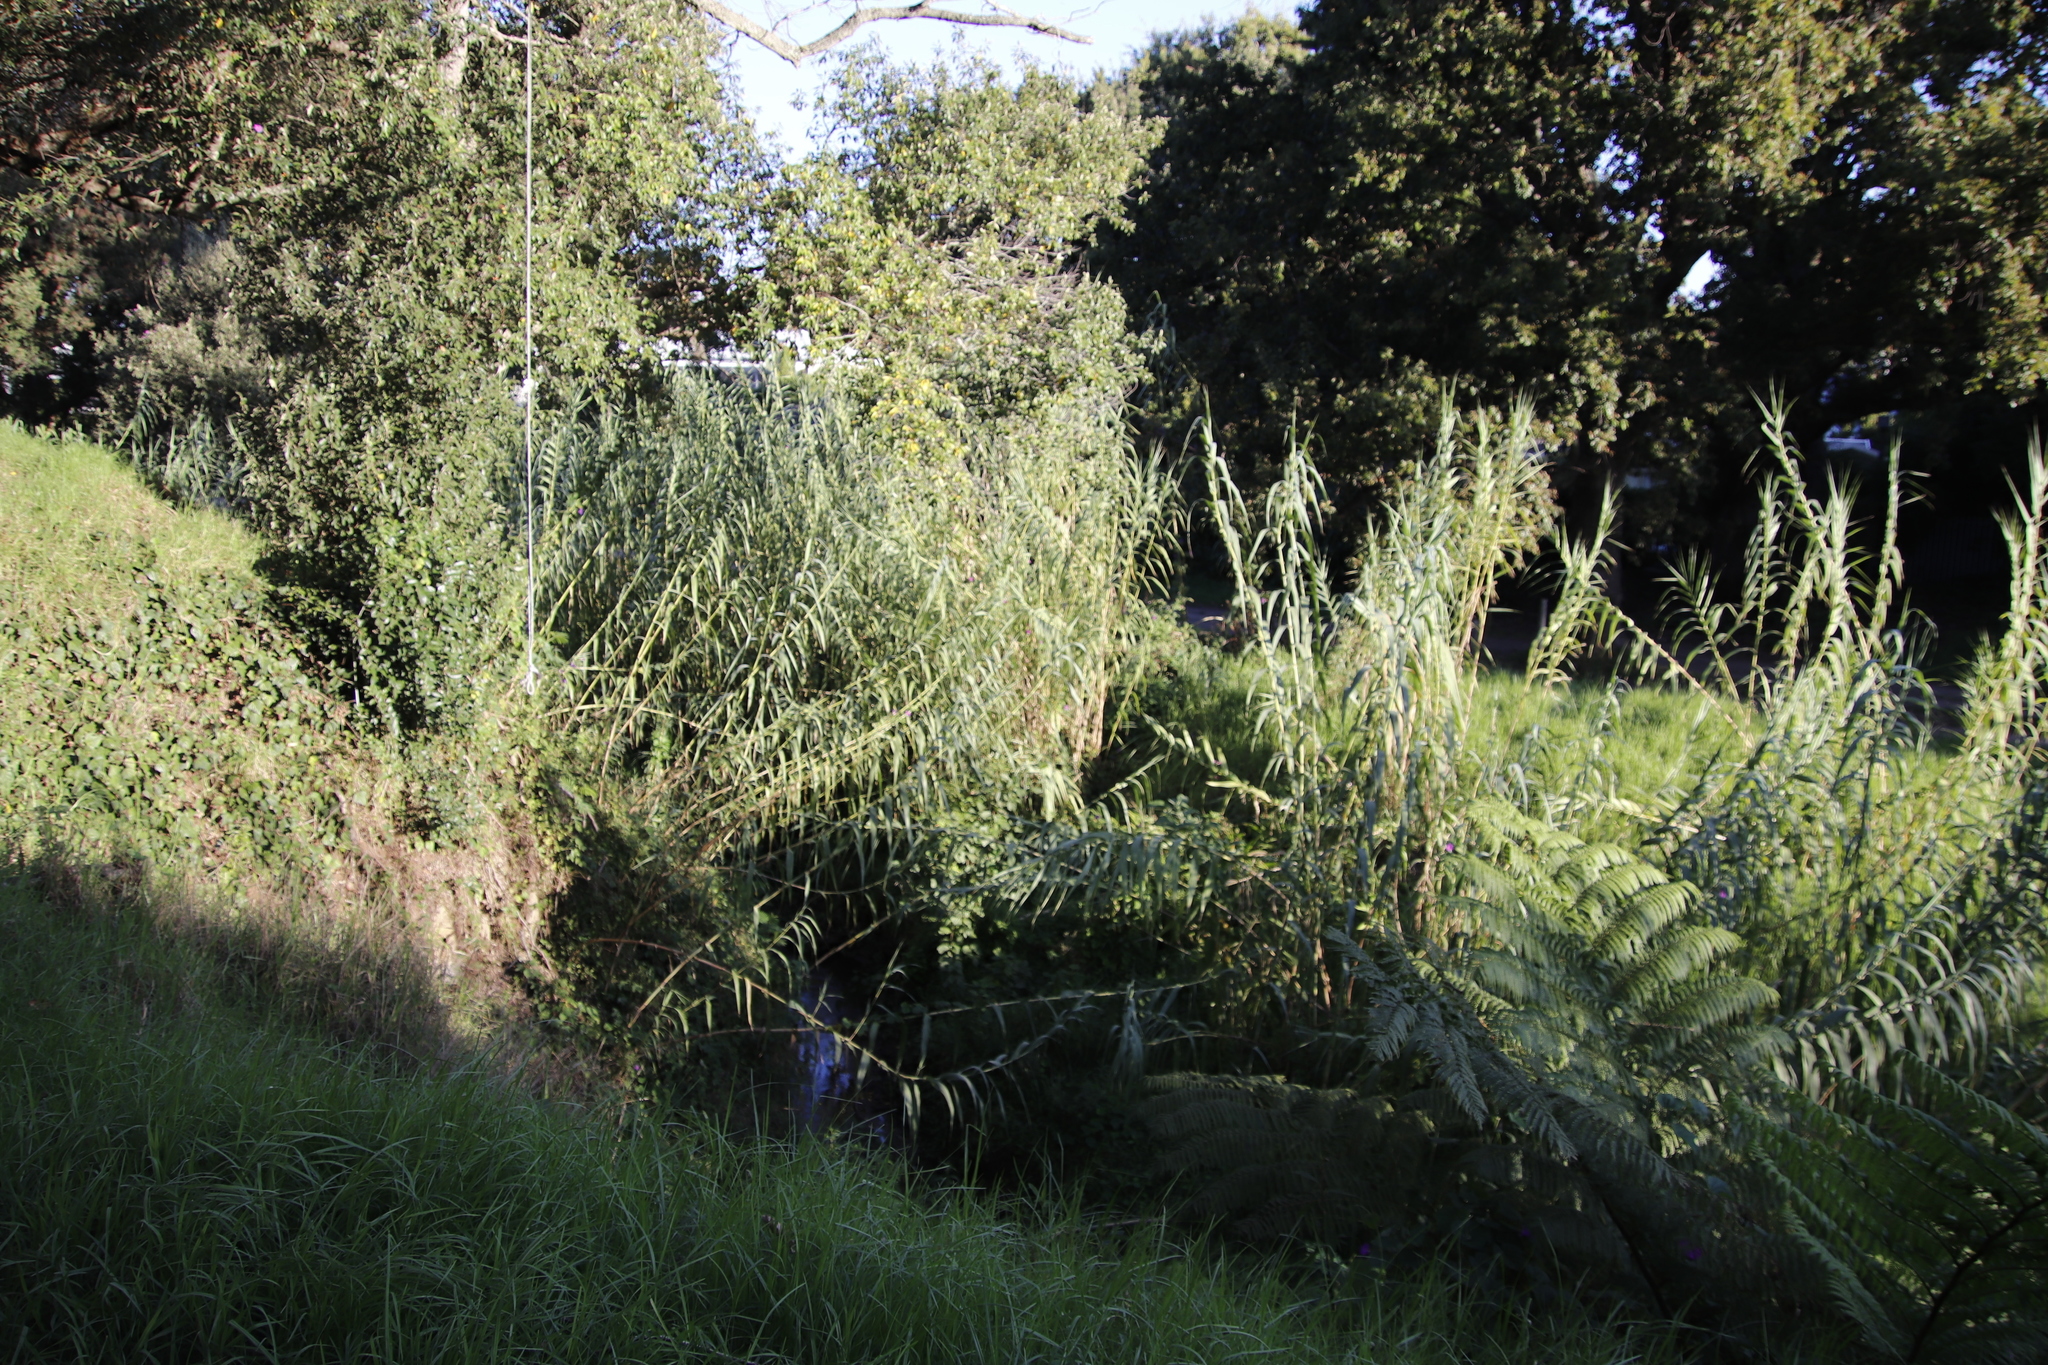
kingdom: Plantae
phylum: Tracheophyta
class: Liliopsida
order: Poales
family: Poaceae
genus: Arundo
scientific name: Arundo donax
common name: Giant reed
